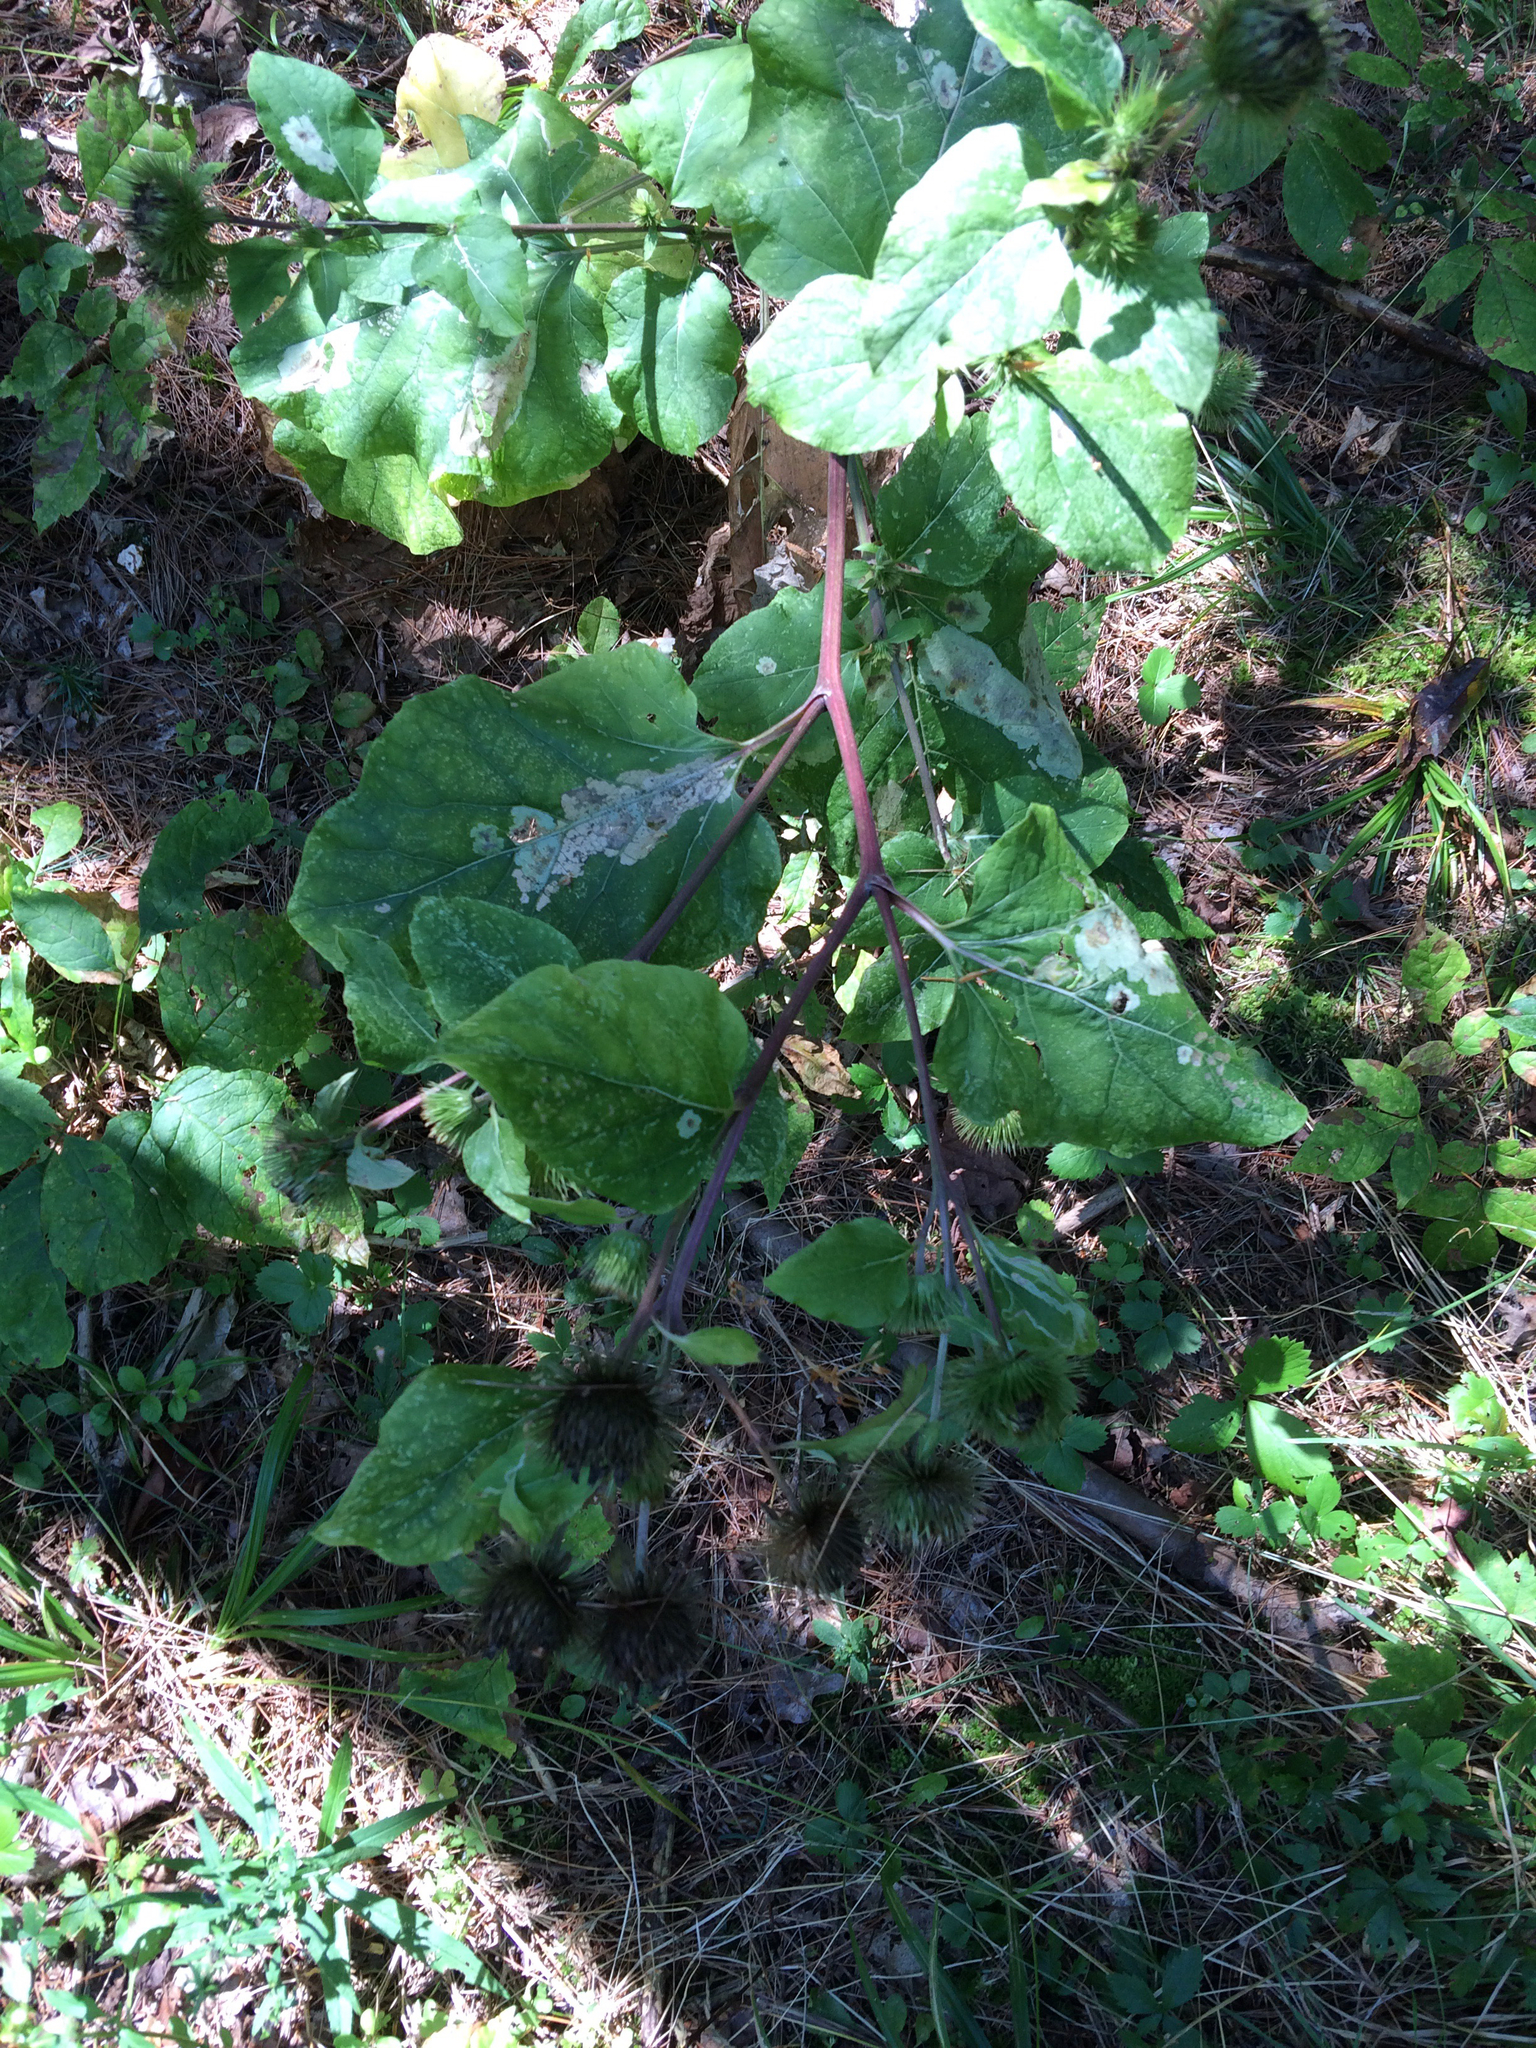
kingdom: Plantae
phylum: Tracheophyta
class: Magnoliopsida
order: Asterales
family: Asteraceae
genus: Arctium
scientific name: Arctium lappa
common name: Greater burdock
